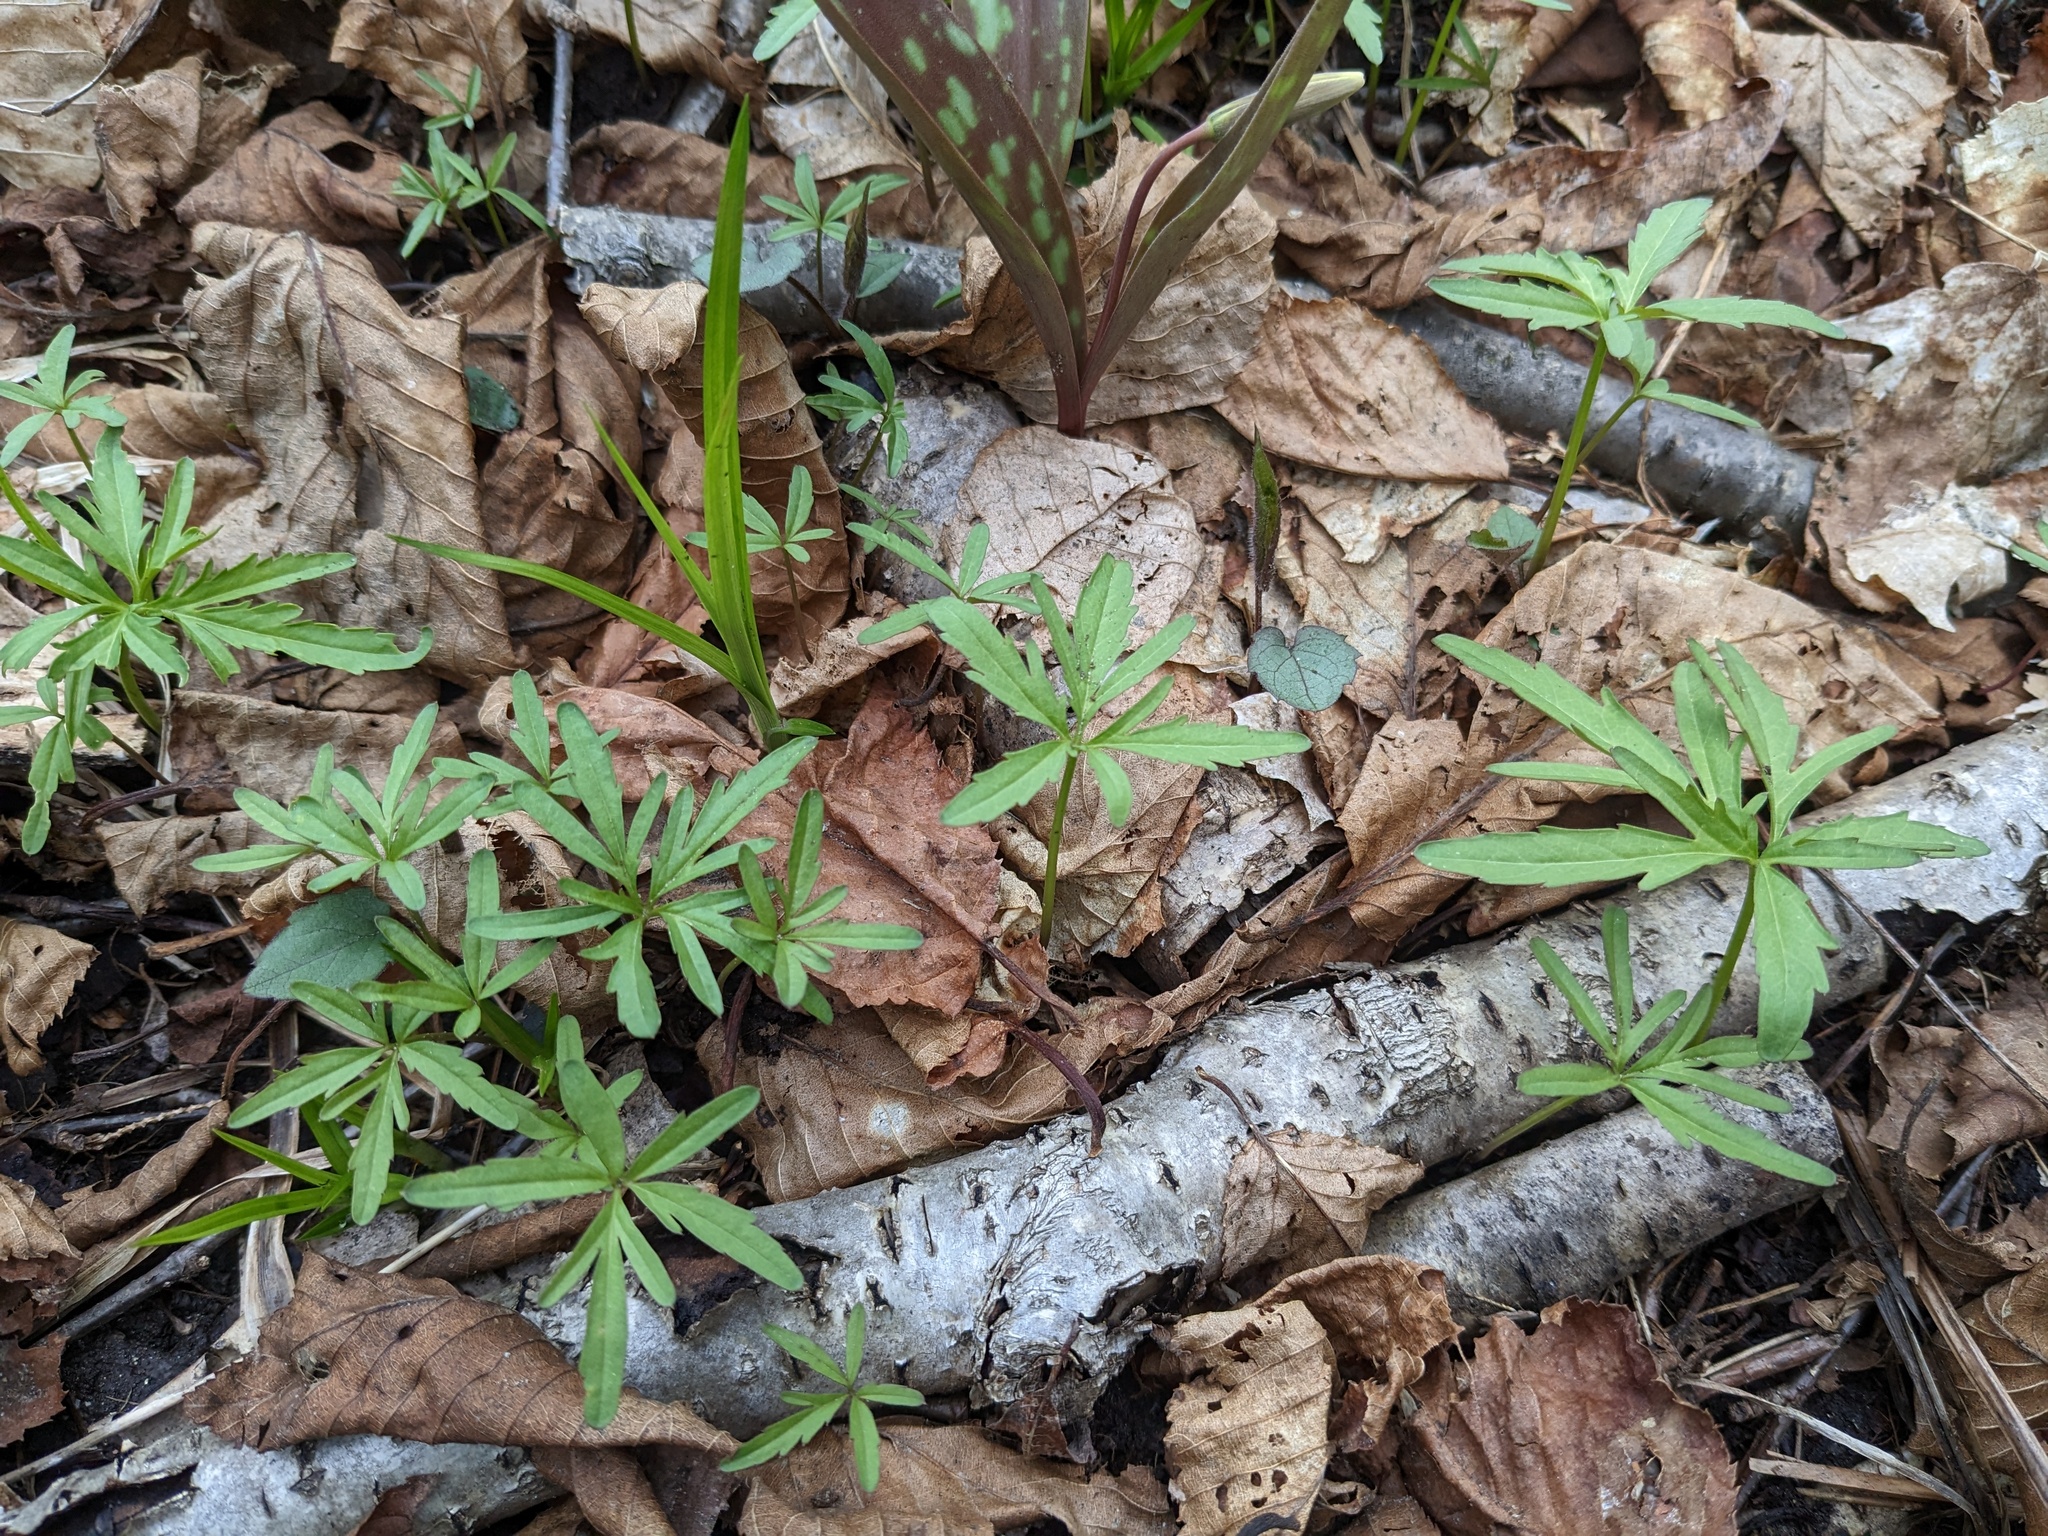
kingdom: Plantae
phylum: Tracheophyta
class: Magnoliopsida
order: Brassicales
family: Brassicaceae
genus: Cardamine
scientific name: Cardamine concatenata
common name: Cut-leaf toothcup
